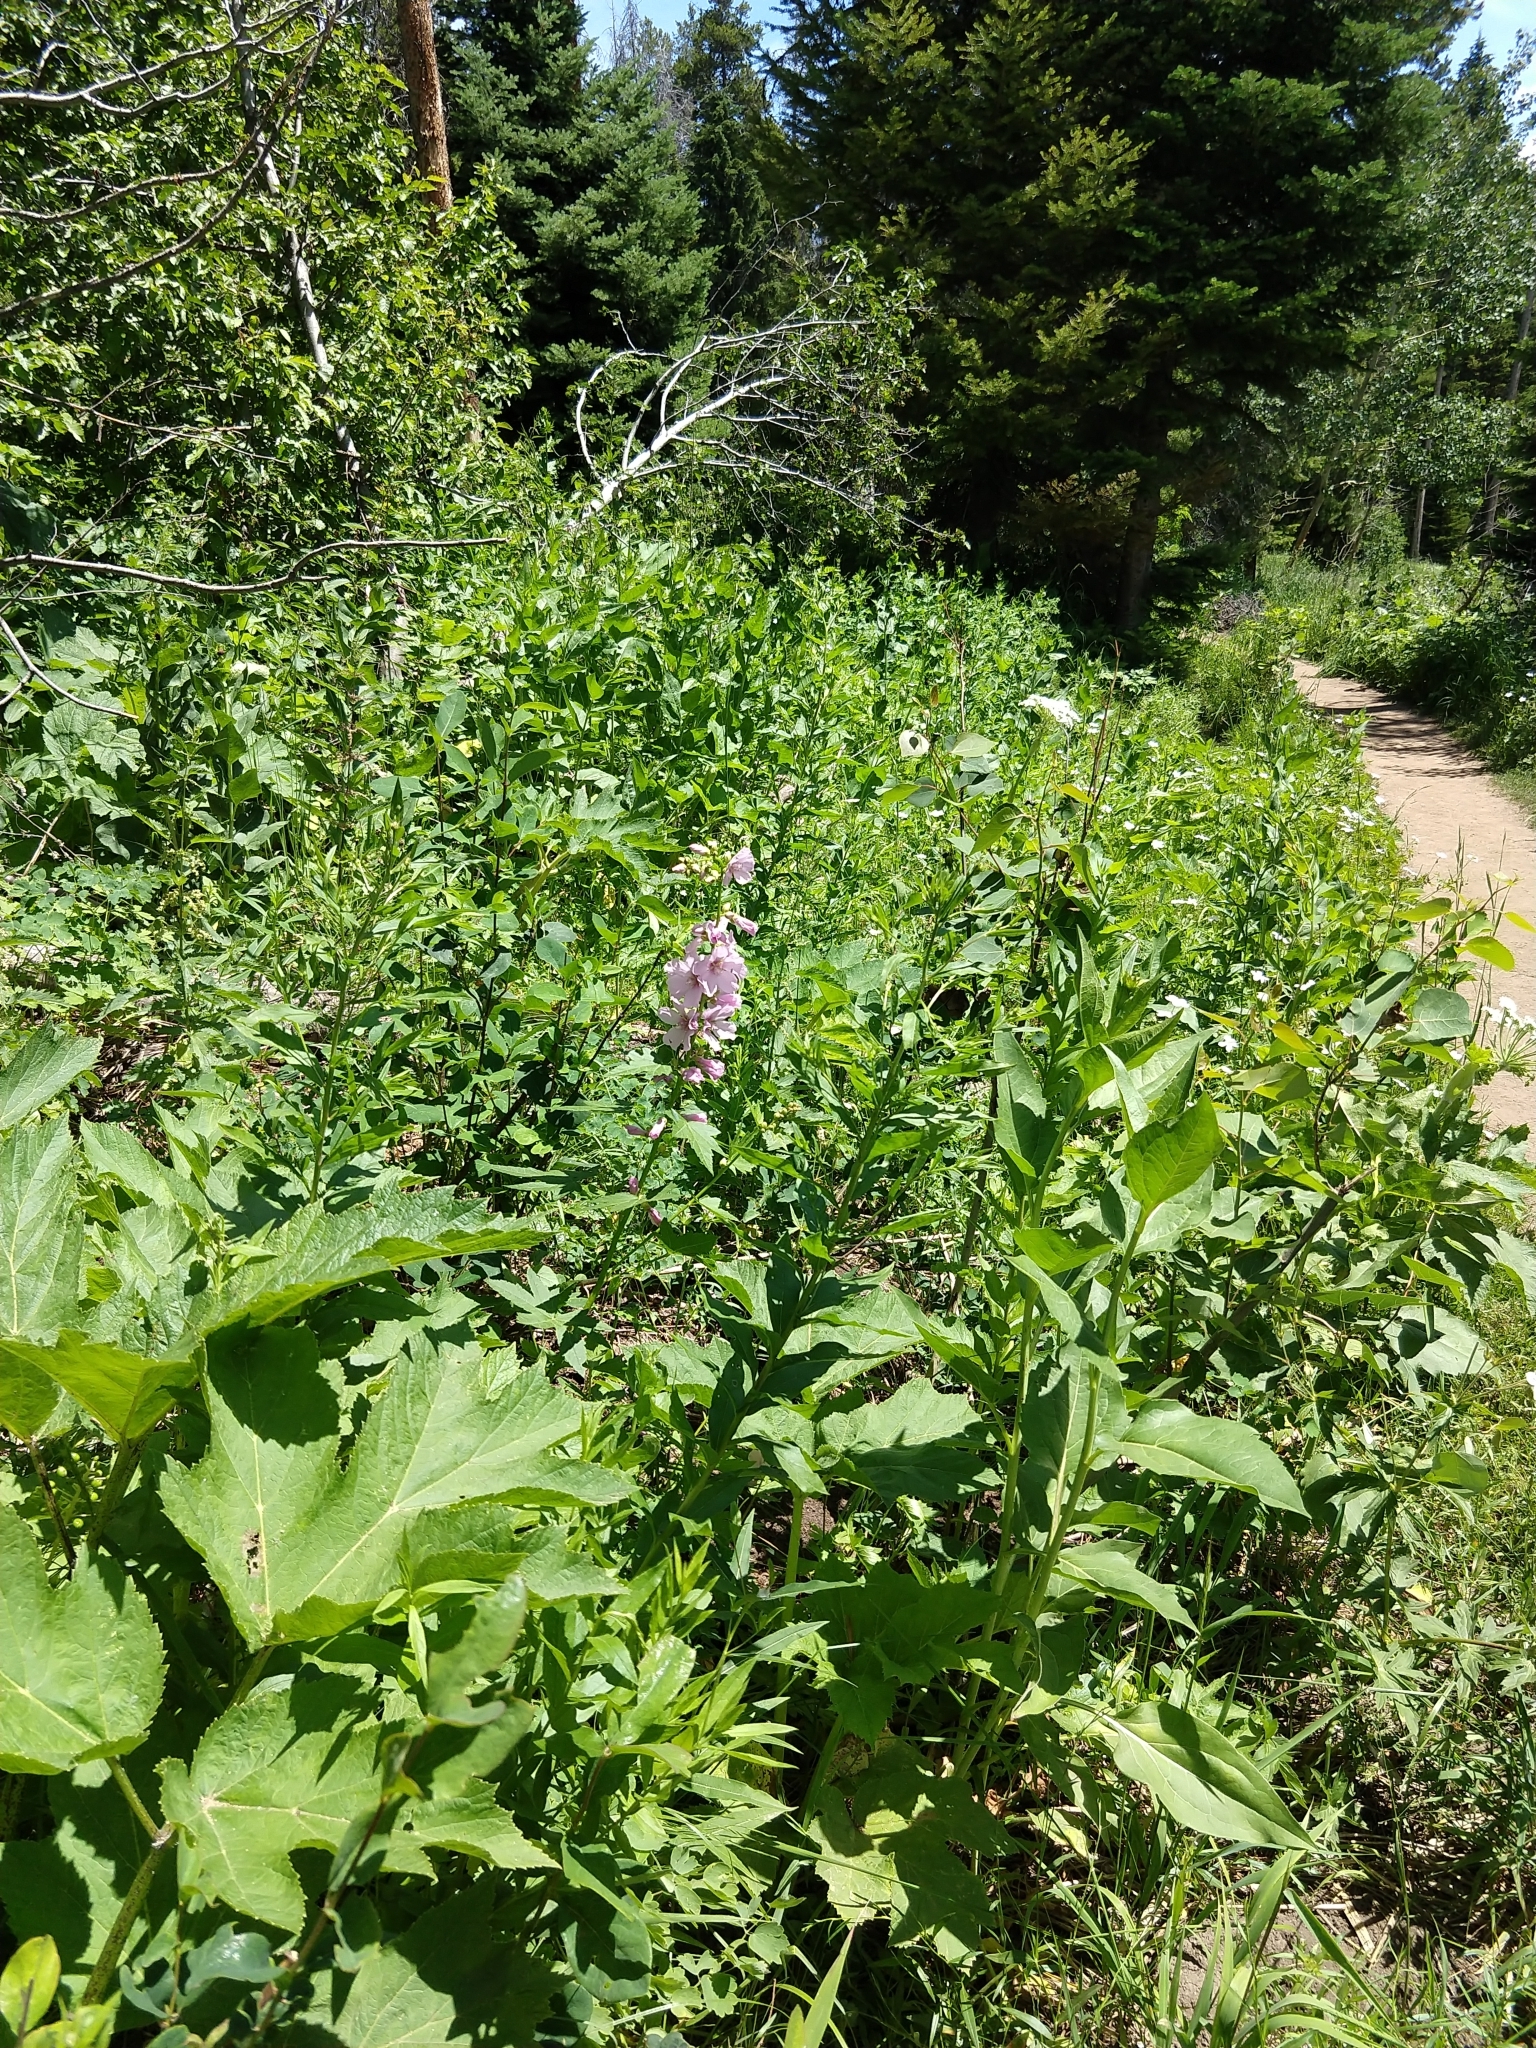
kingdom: Plantae
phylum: Tracheophyta
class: Magnoliopsida
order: Malvales
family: Malvaceae
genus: Iliamna
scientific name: Iliamna rivularis
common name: Wild hollyhock
